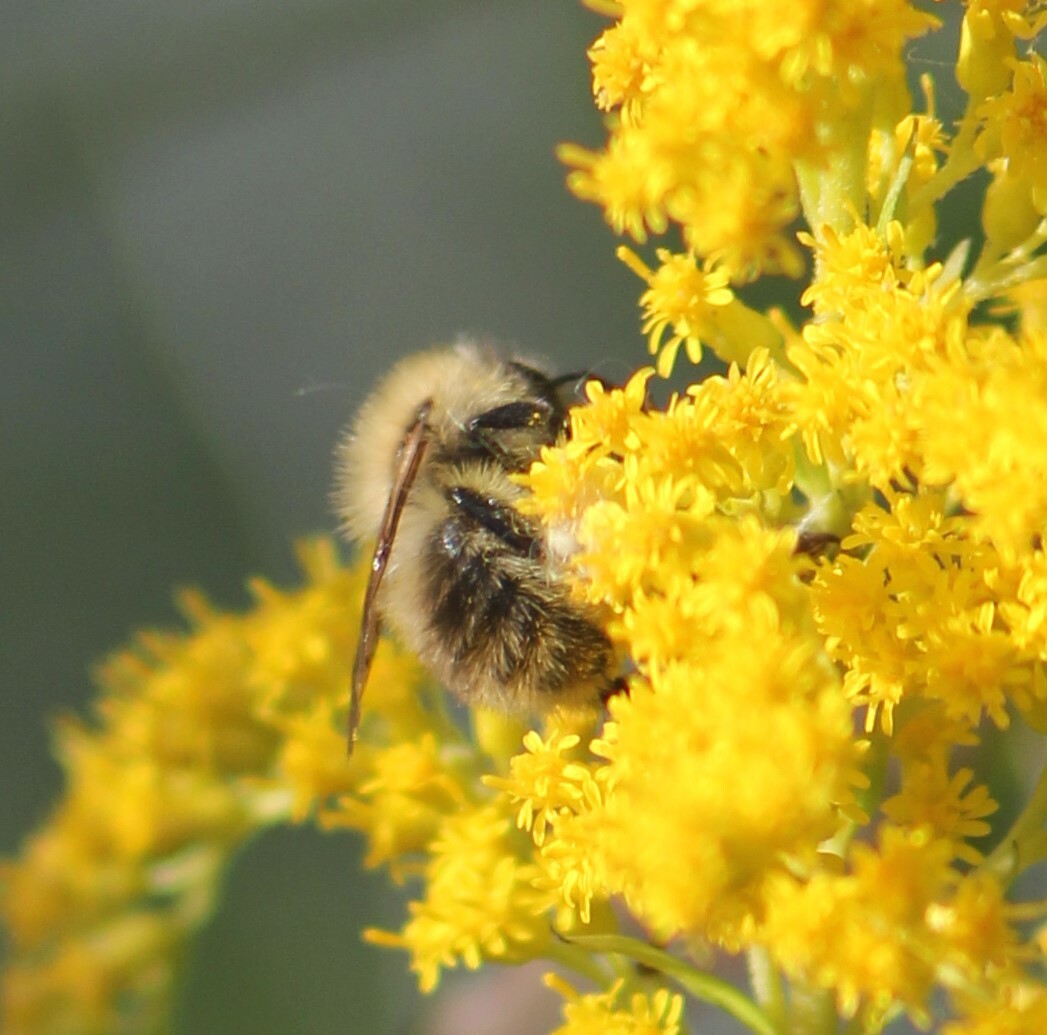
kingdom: Animalia
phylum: Arthropoda
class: Insecta
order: Hymenoptera
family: Apidae
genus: Bombus
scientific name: Bombus pascuorum
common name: Common carder bee
